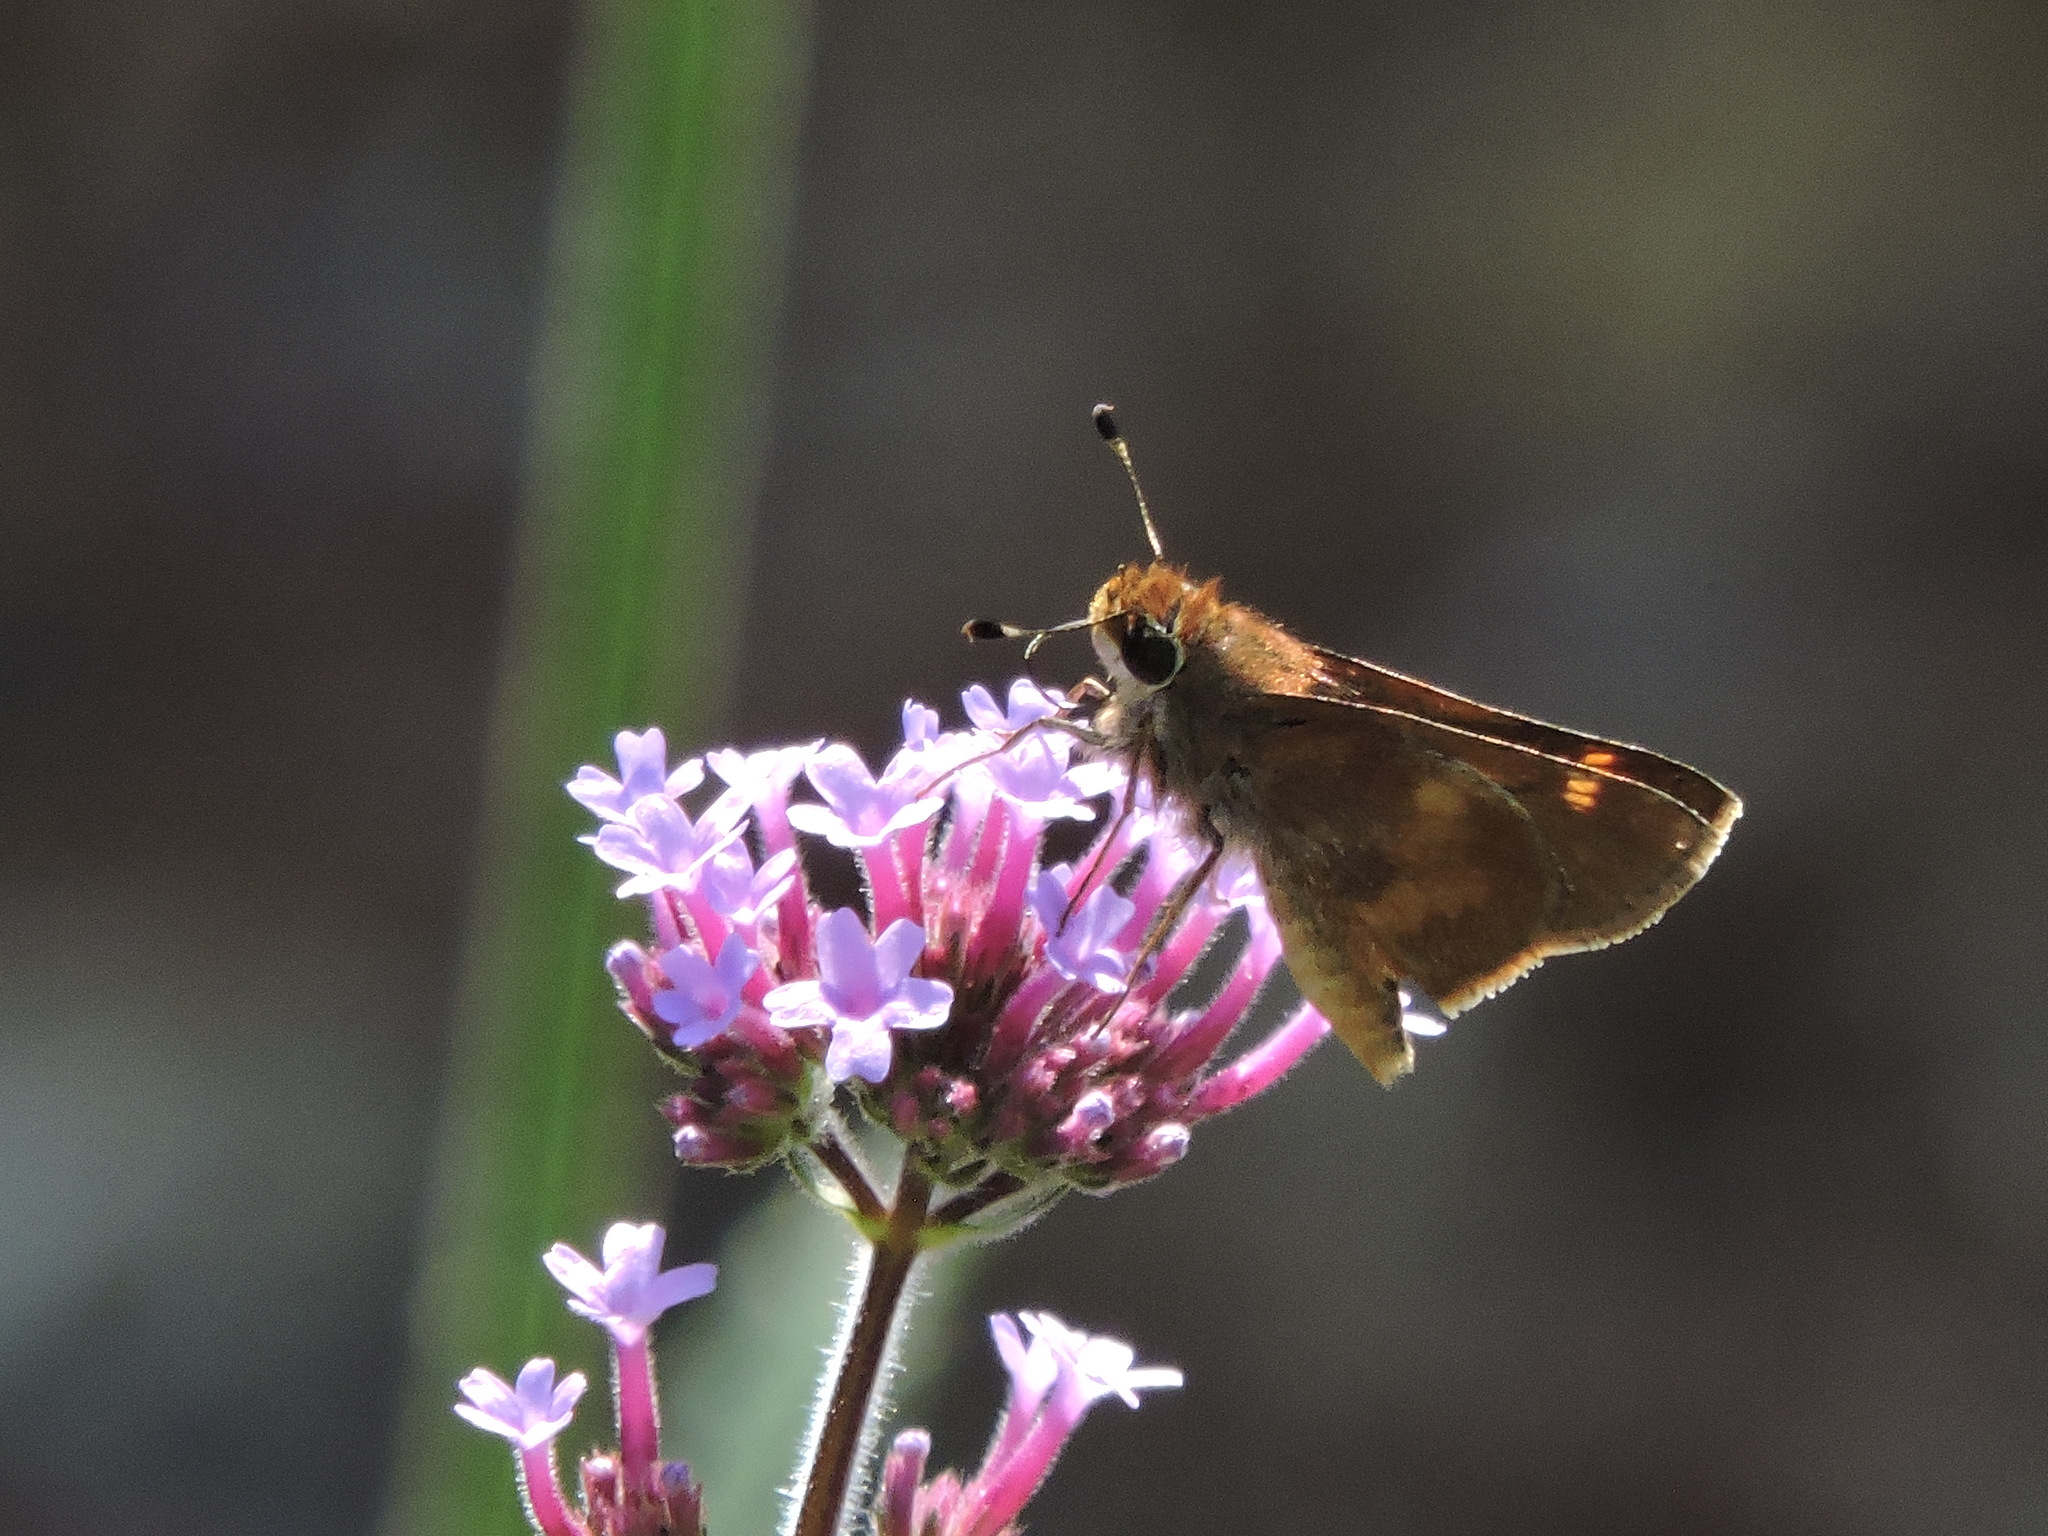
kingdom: Animalia
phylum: Arthropoda
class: Insecta
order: Lepidoptera
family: Hesperiidae
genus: Lon
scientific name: Lon melane
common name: Umber skipper
